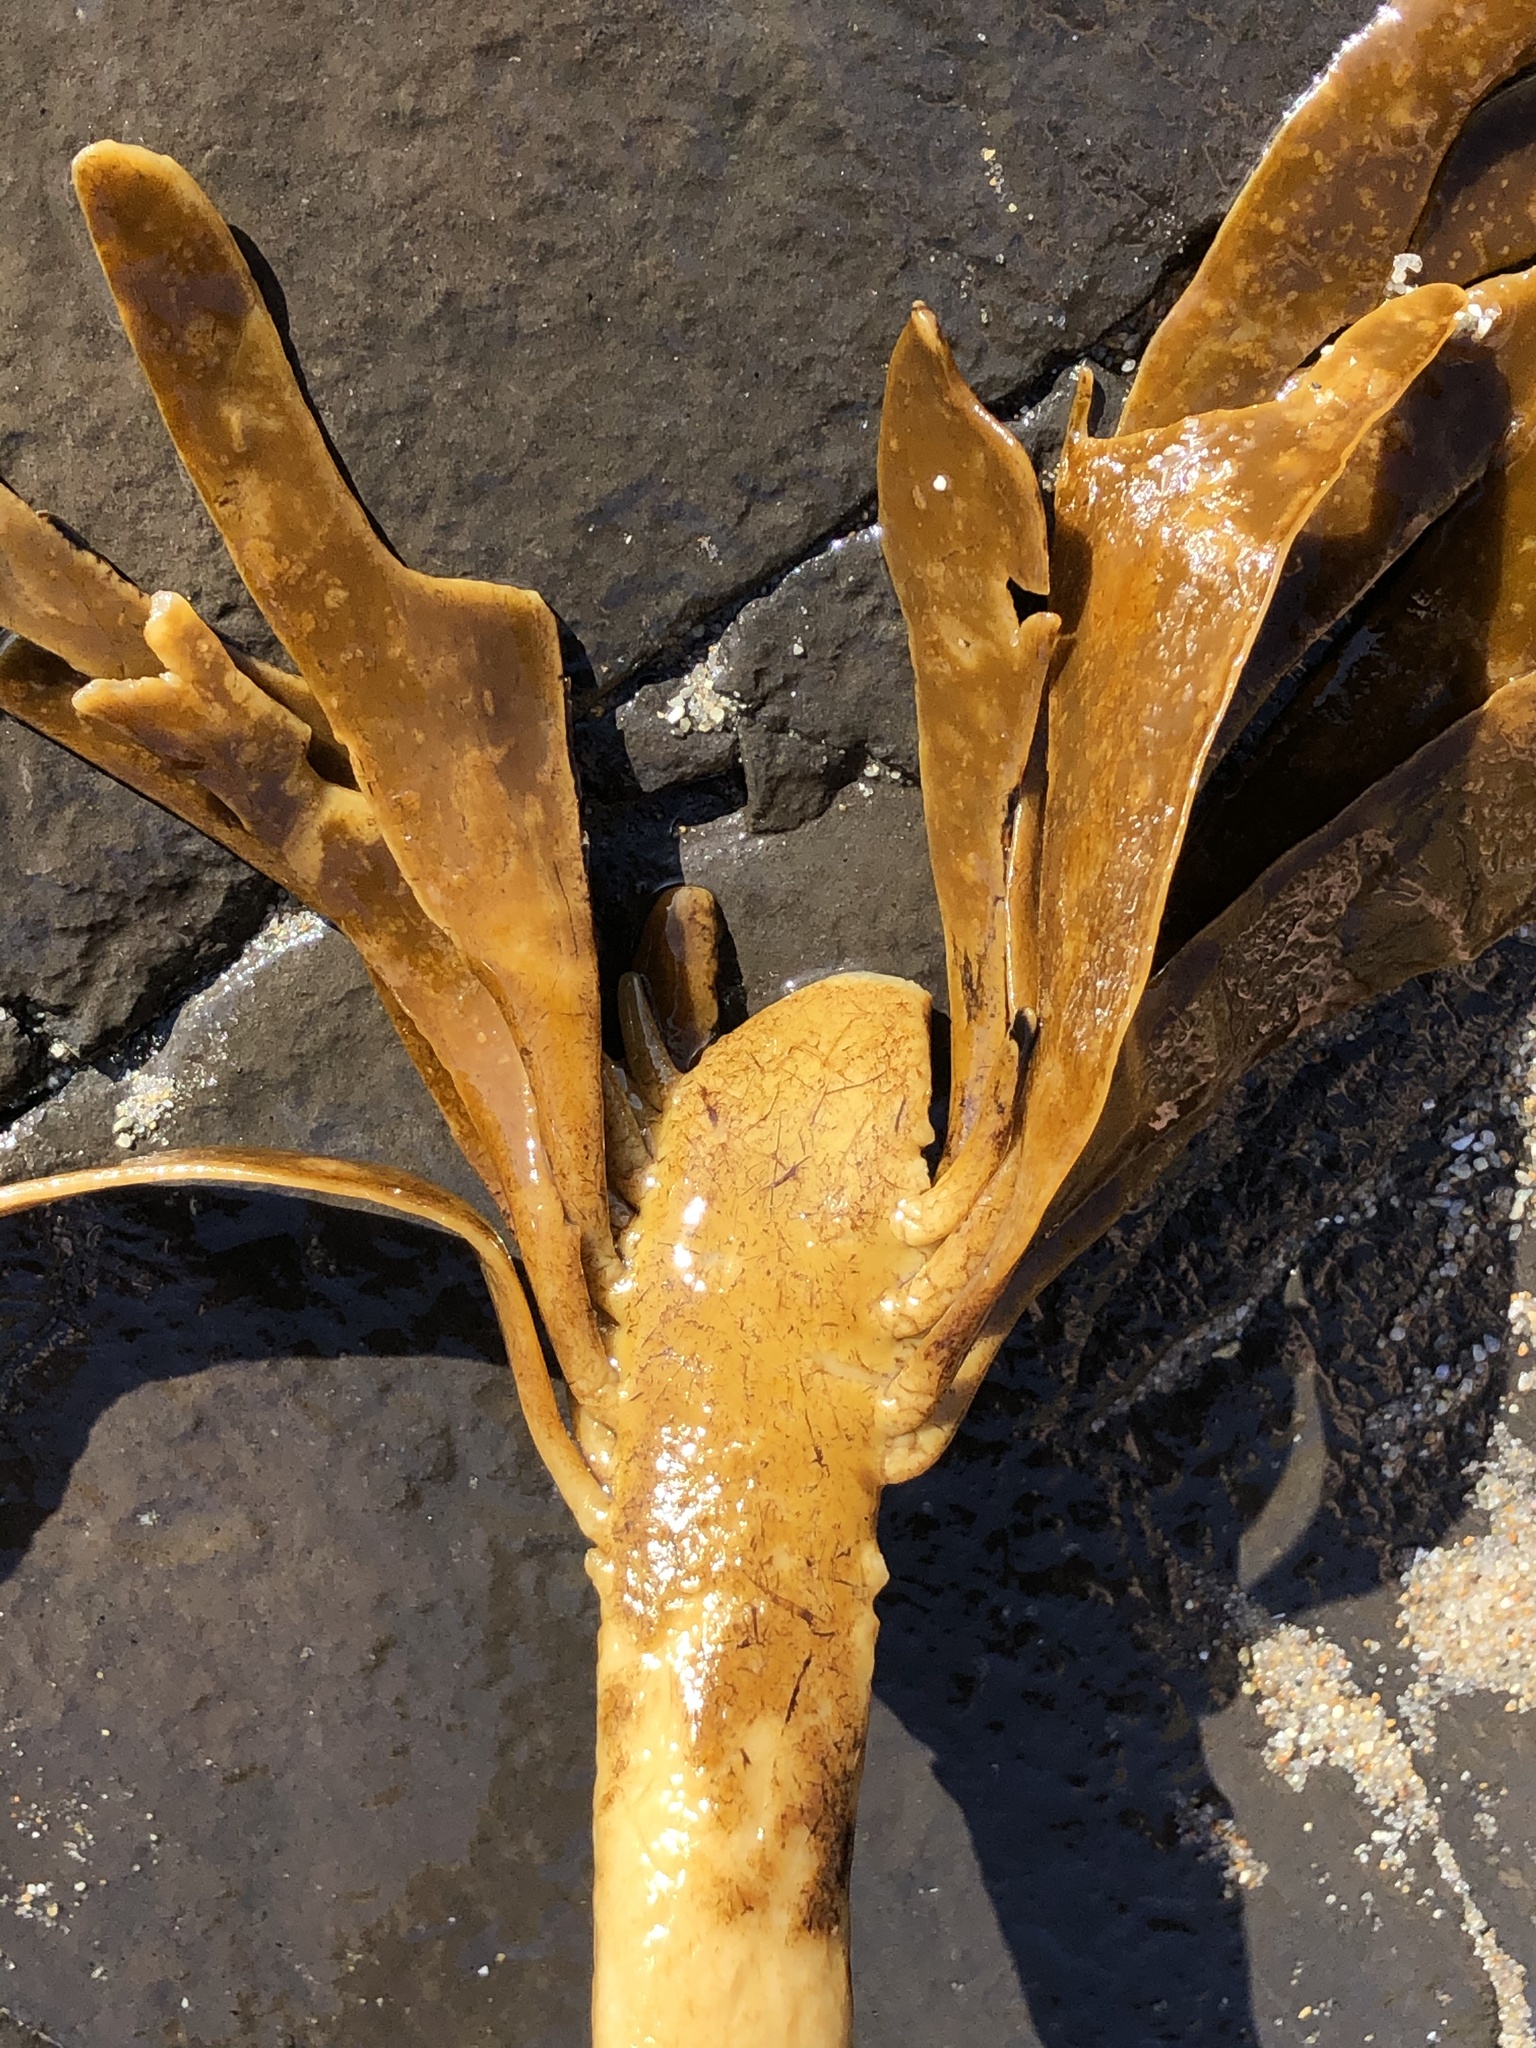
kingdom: Chromista
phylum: Ochrophyta
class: Phaeophyceae
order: Laminariales
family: Alariaceae
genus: Pterygophora
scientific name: Pterygophora californica
